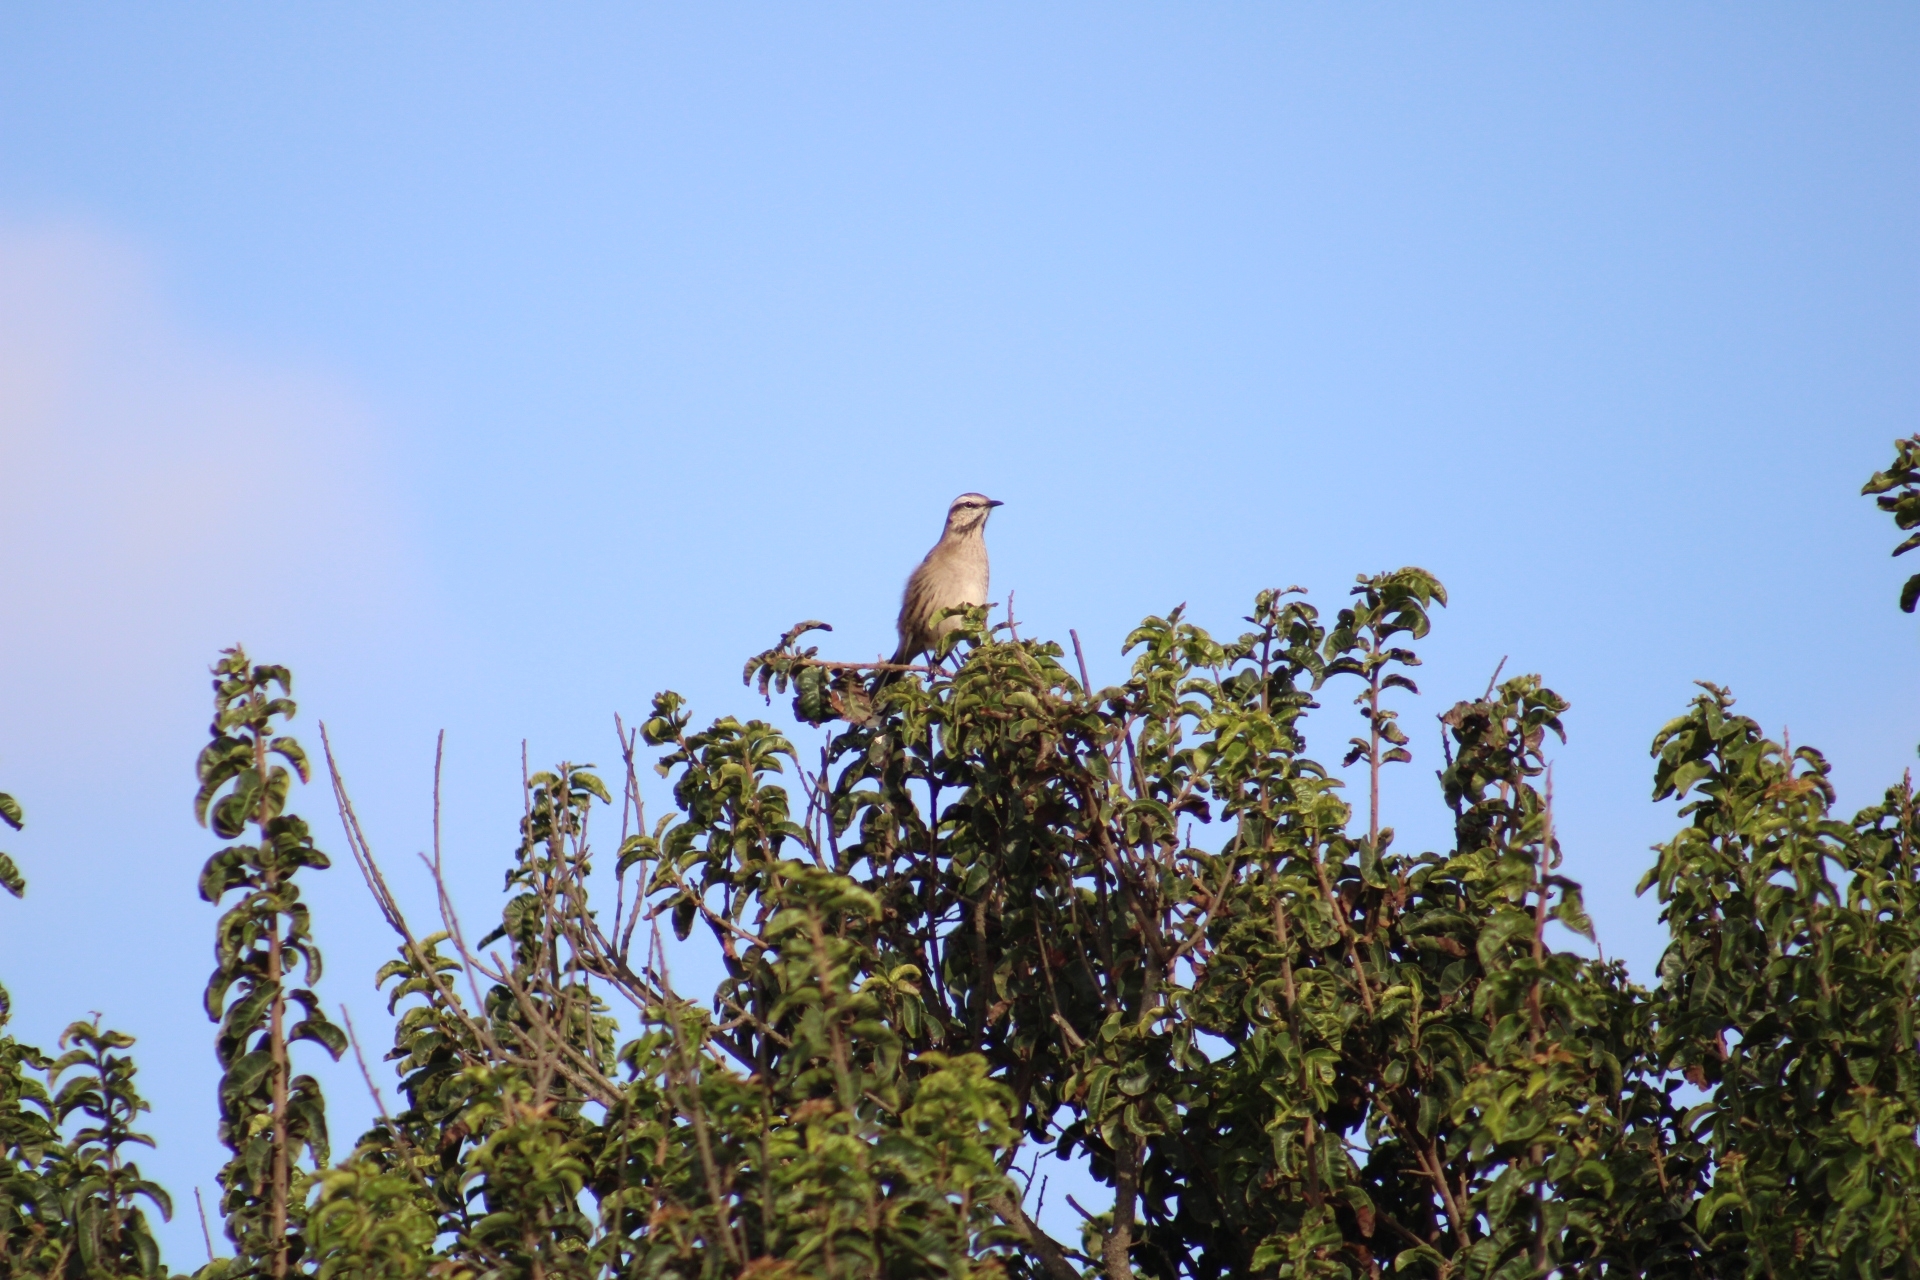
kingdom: Animalia
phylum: Chordata
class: Aves
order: Passeriformes
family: Mimidae
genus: Mimus
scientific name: Mimus thenca
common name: Chilean mockingbird
